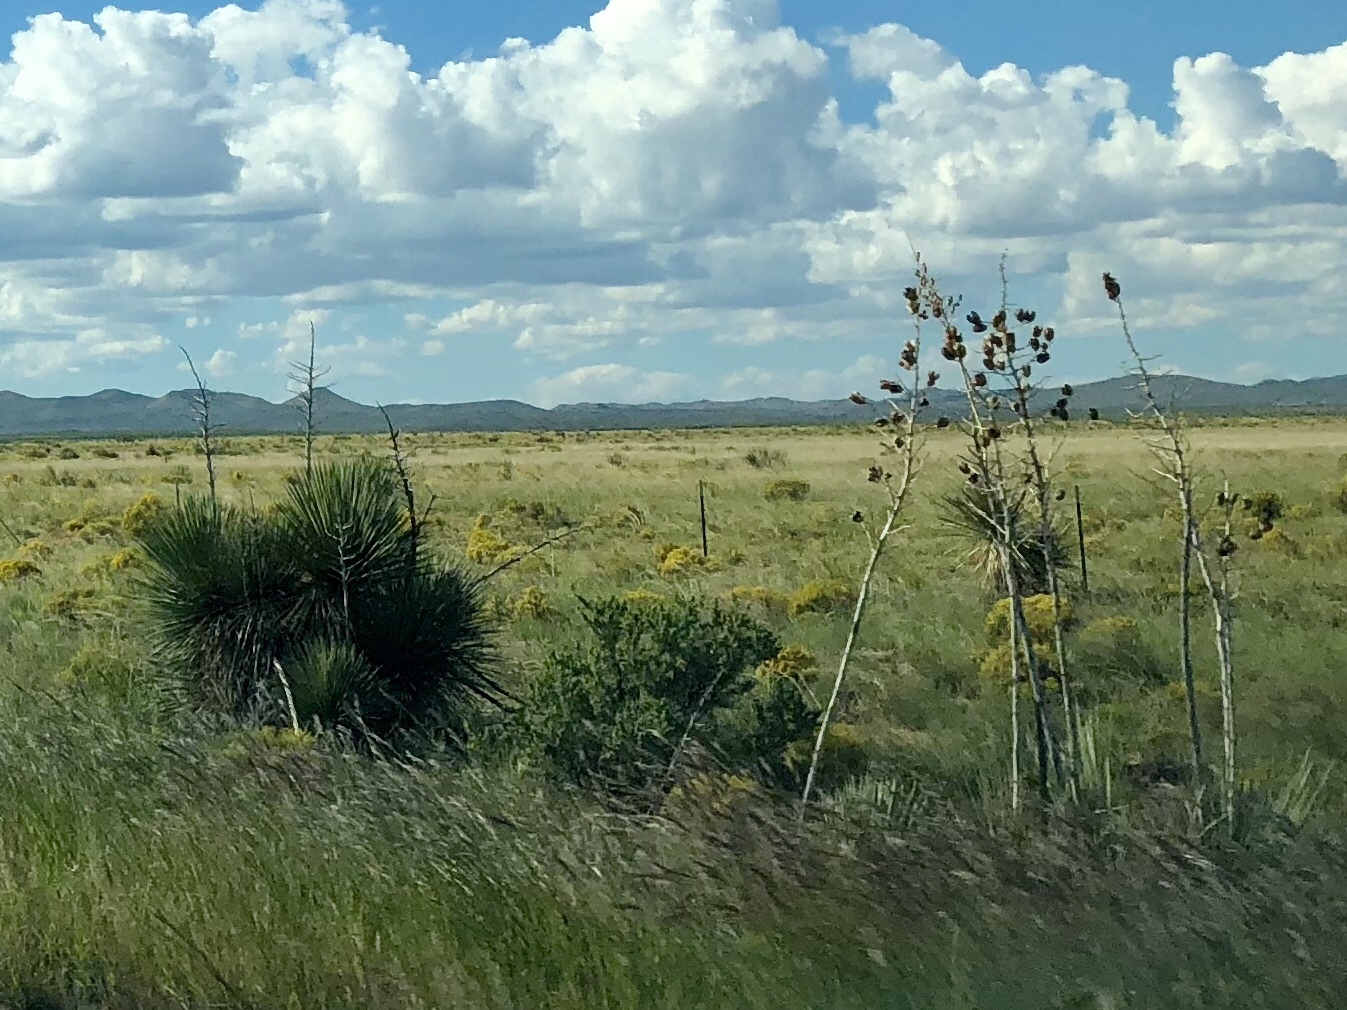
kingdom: Plantae
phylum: Tracheophyta
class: Liliopsida
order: Asparagales
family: Asparagaceae
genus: Yucca
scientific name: Yucca elata
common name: Palmella
